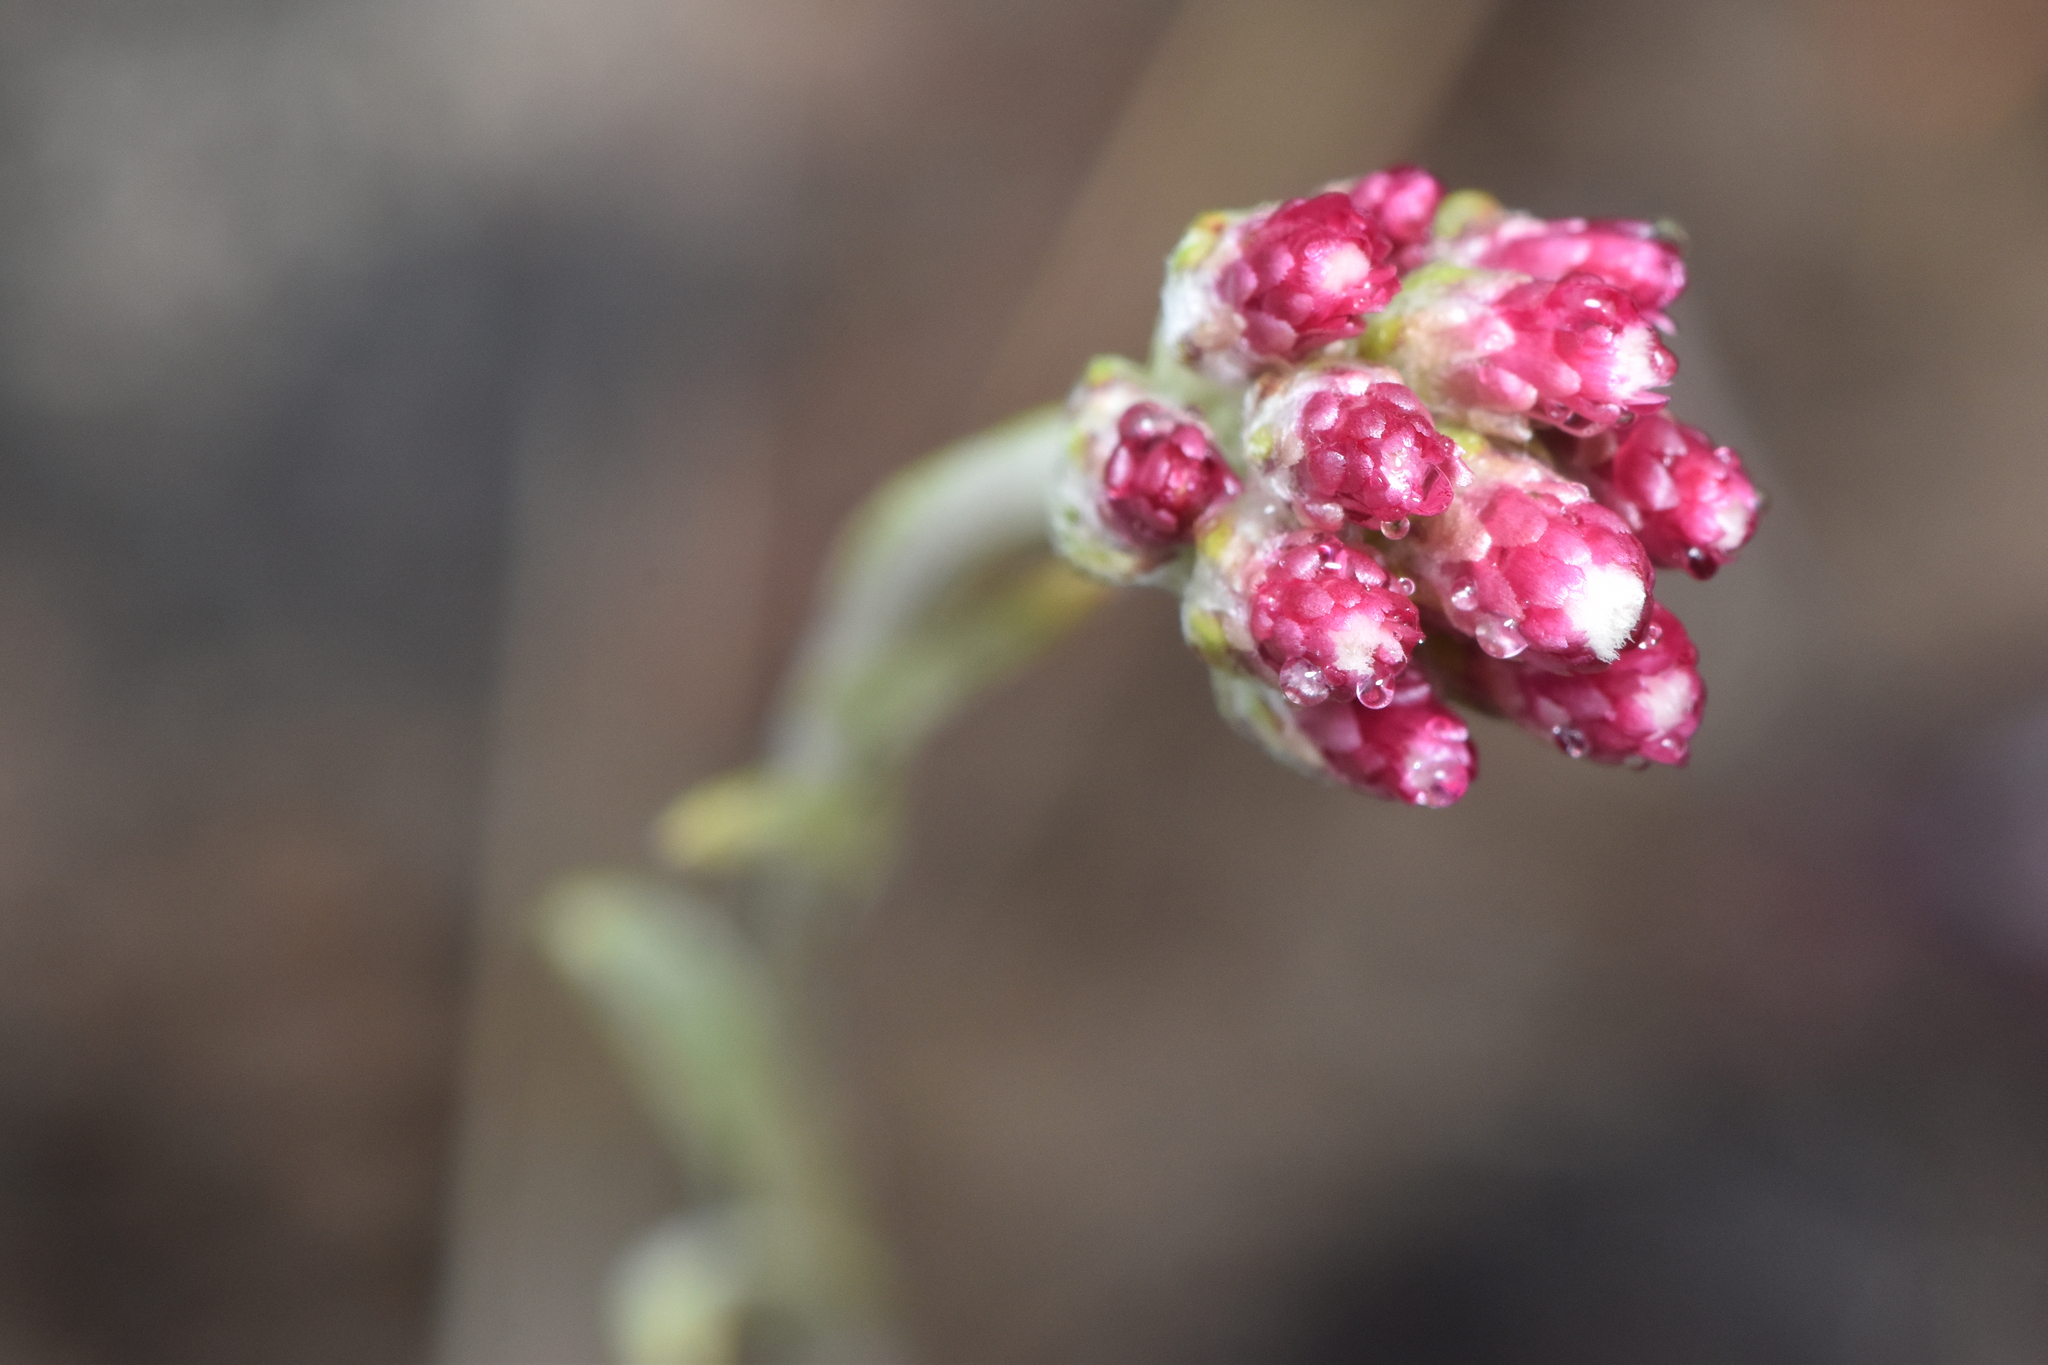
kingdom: Plantae
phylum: Tracheophyta
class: Magnoliopsida
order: Asterales
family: Asteraceae
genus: Antennaria
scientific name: Antennaria rosea
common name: Rosy pussytoes
